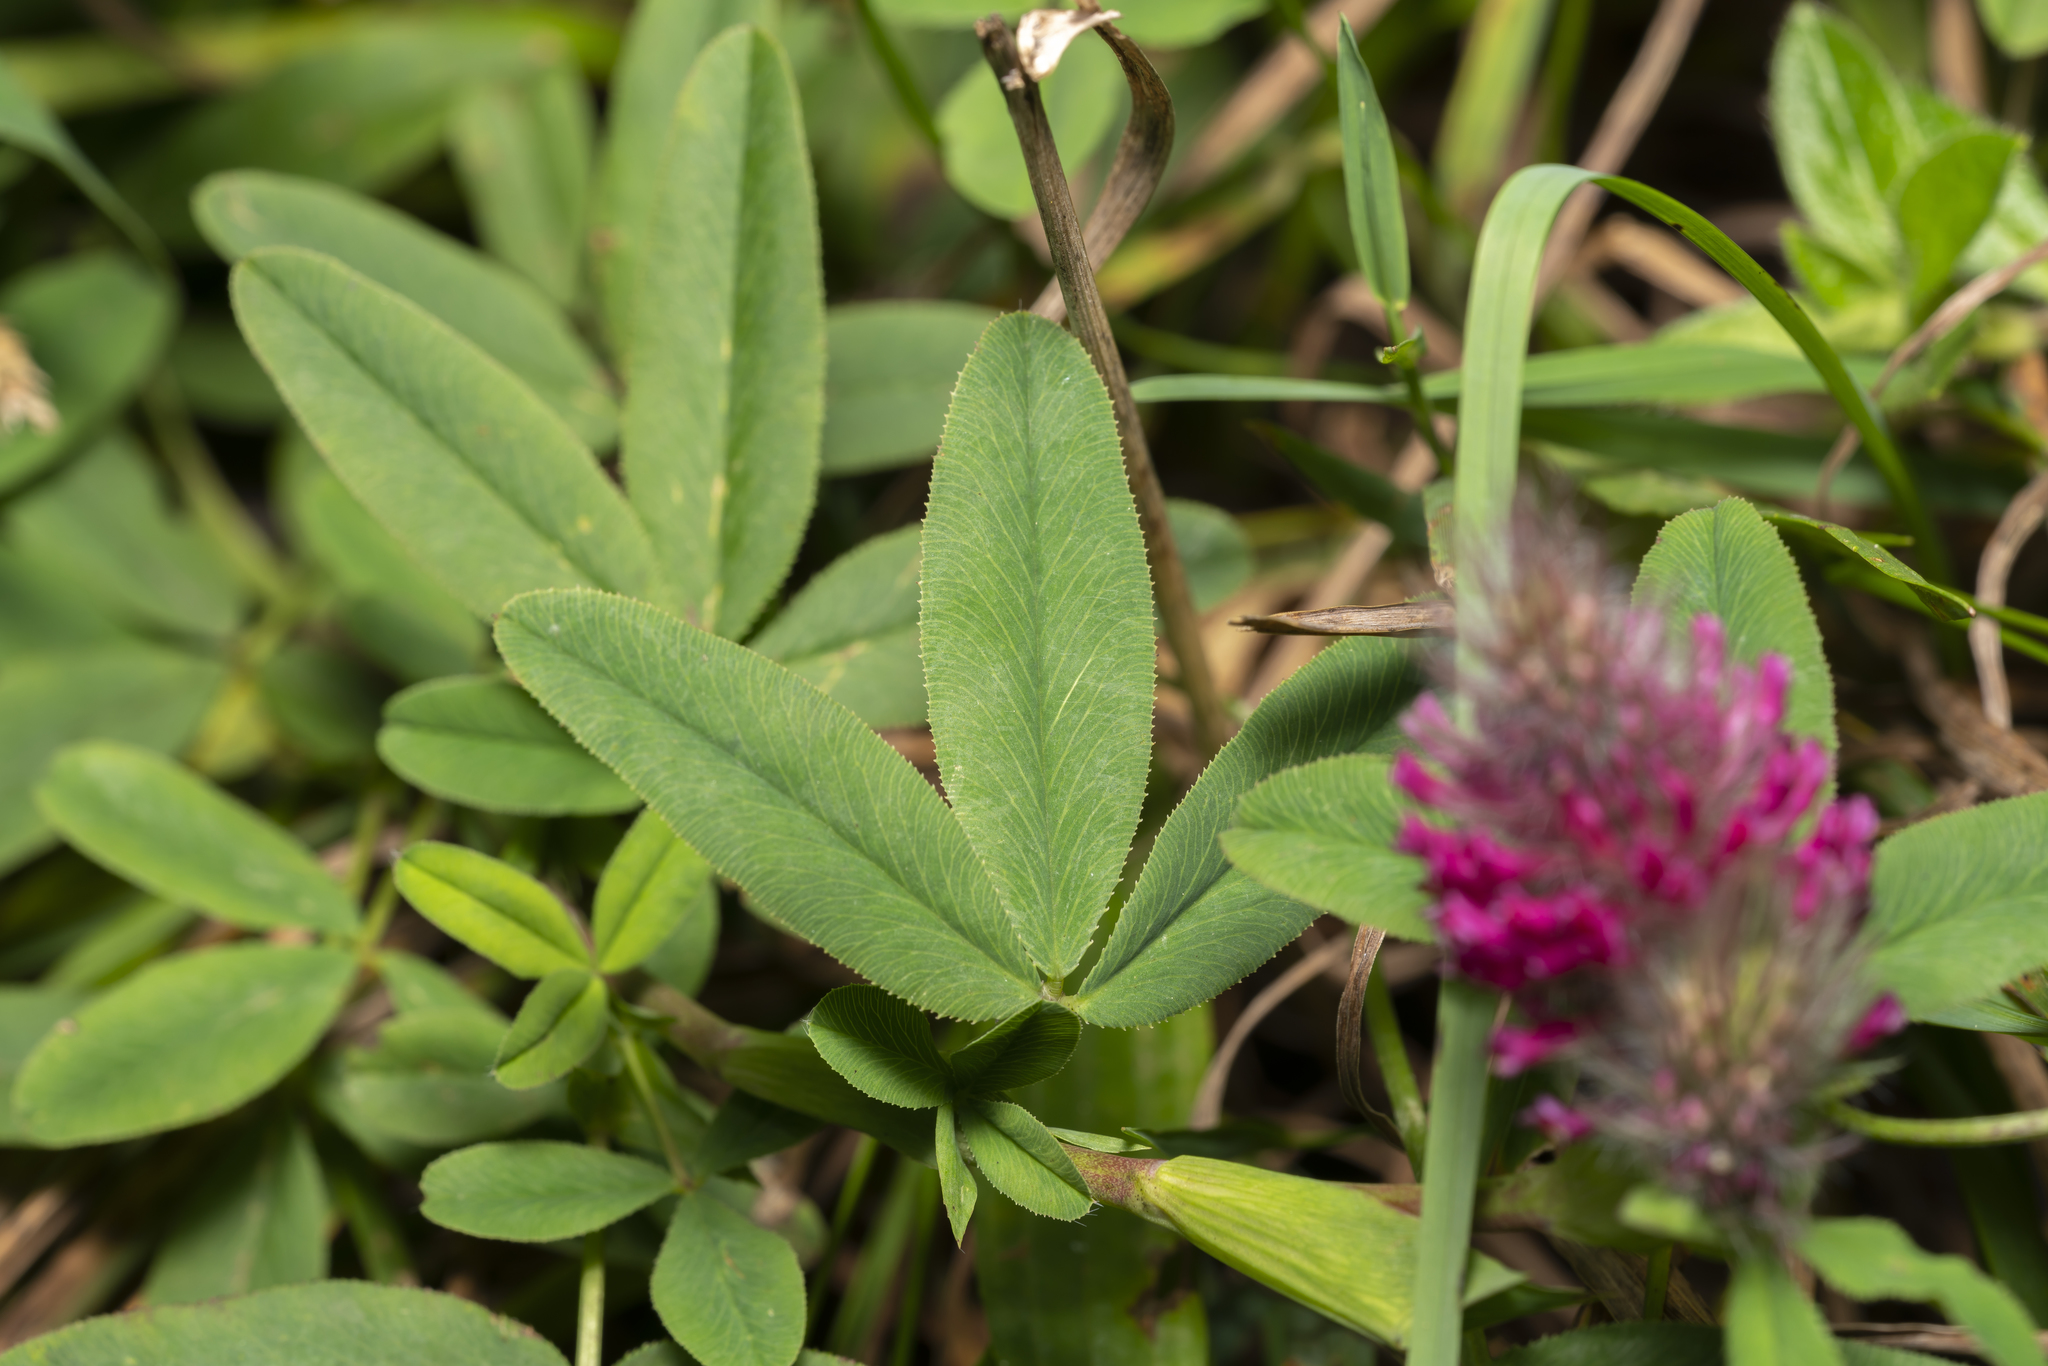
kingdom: Plantae
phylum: Tracheophyta
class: Magnoliopsida
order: Fabales
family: Fabaceae
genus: Trifolium
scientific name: Trifolium rubens
